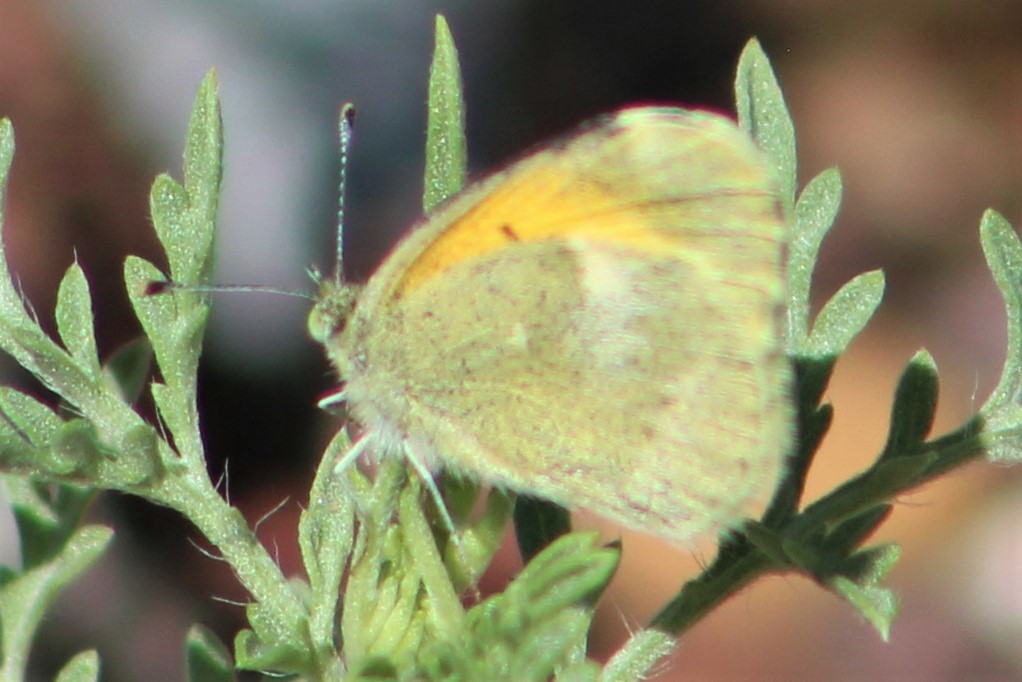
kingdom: Animalia
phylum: Arthropoda
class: Insecta
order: Lepidoptera
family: Pieridae
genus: Nathalis
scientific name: Nathalis iole
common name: Dainty sulphur
